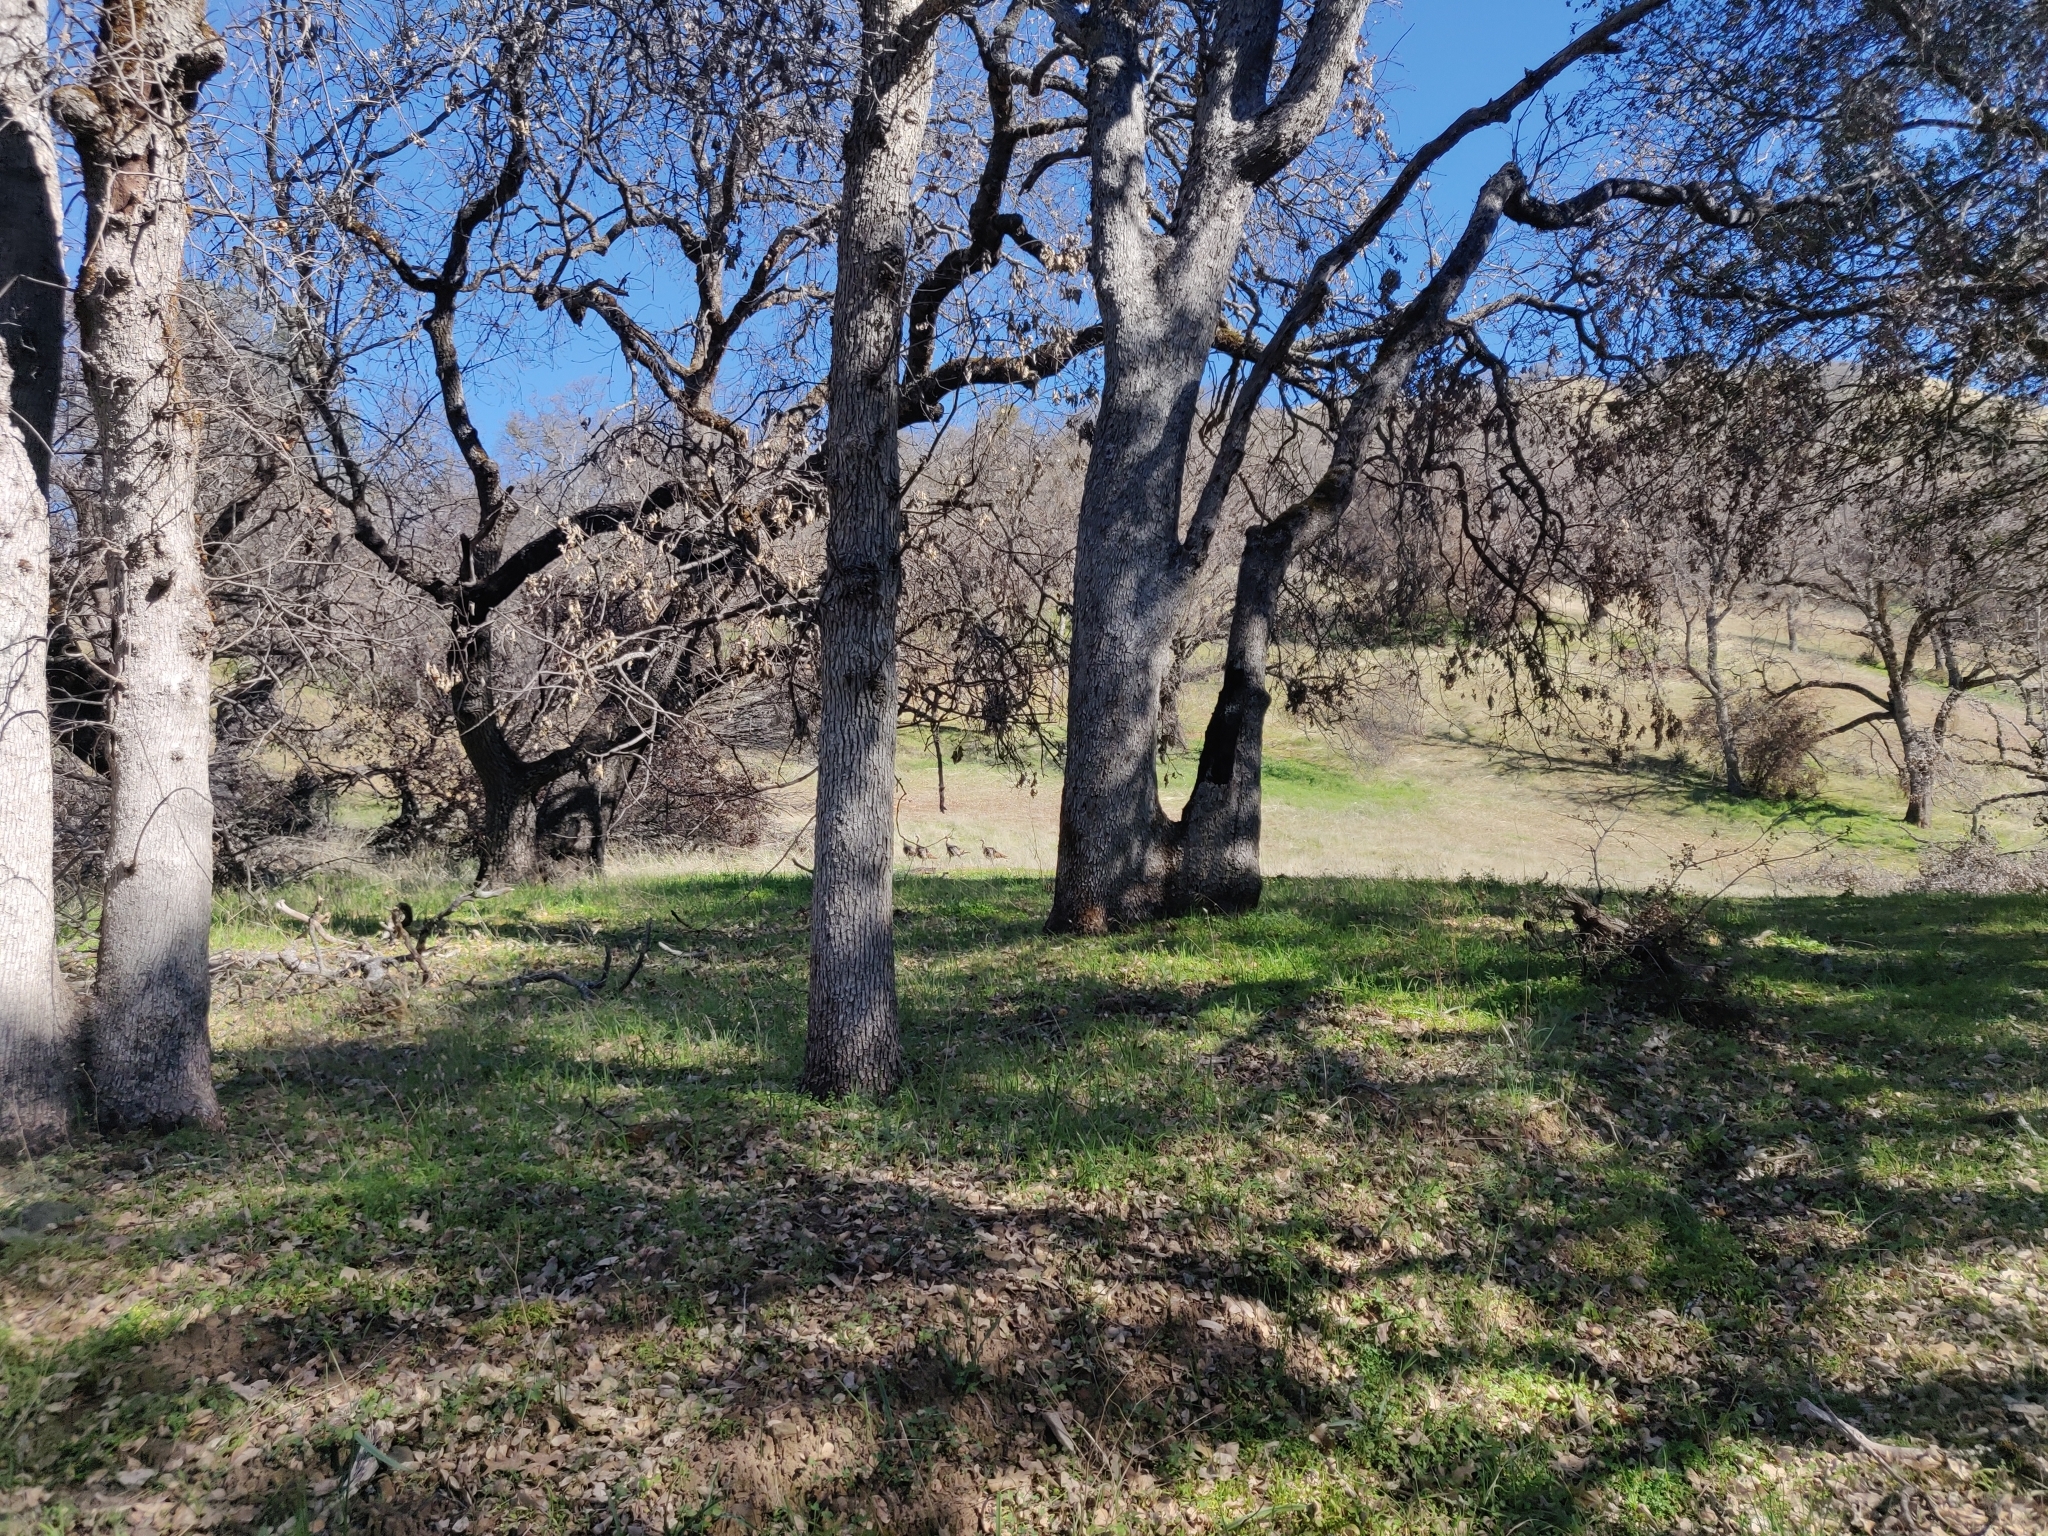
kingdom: Animalia
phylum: Chordata
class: Aves
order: Galliformes
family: Phasianidae
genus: Meleagris
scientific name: Meleagris gallopavo
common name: Wild turkey
